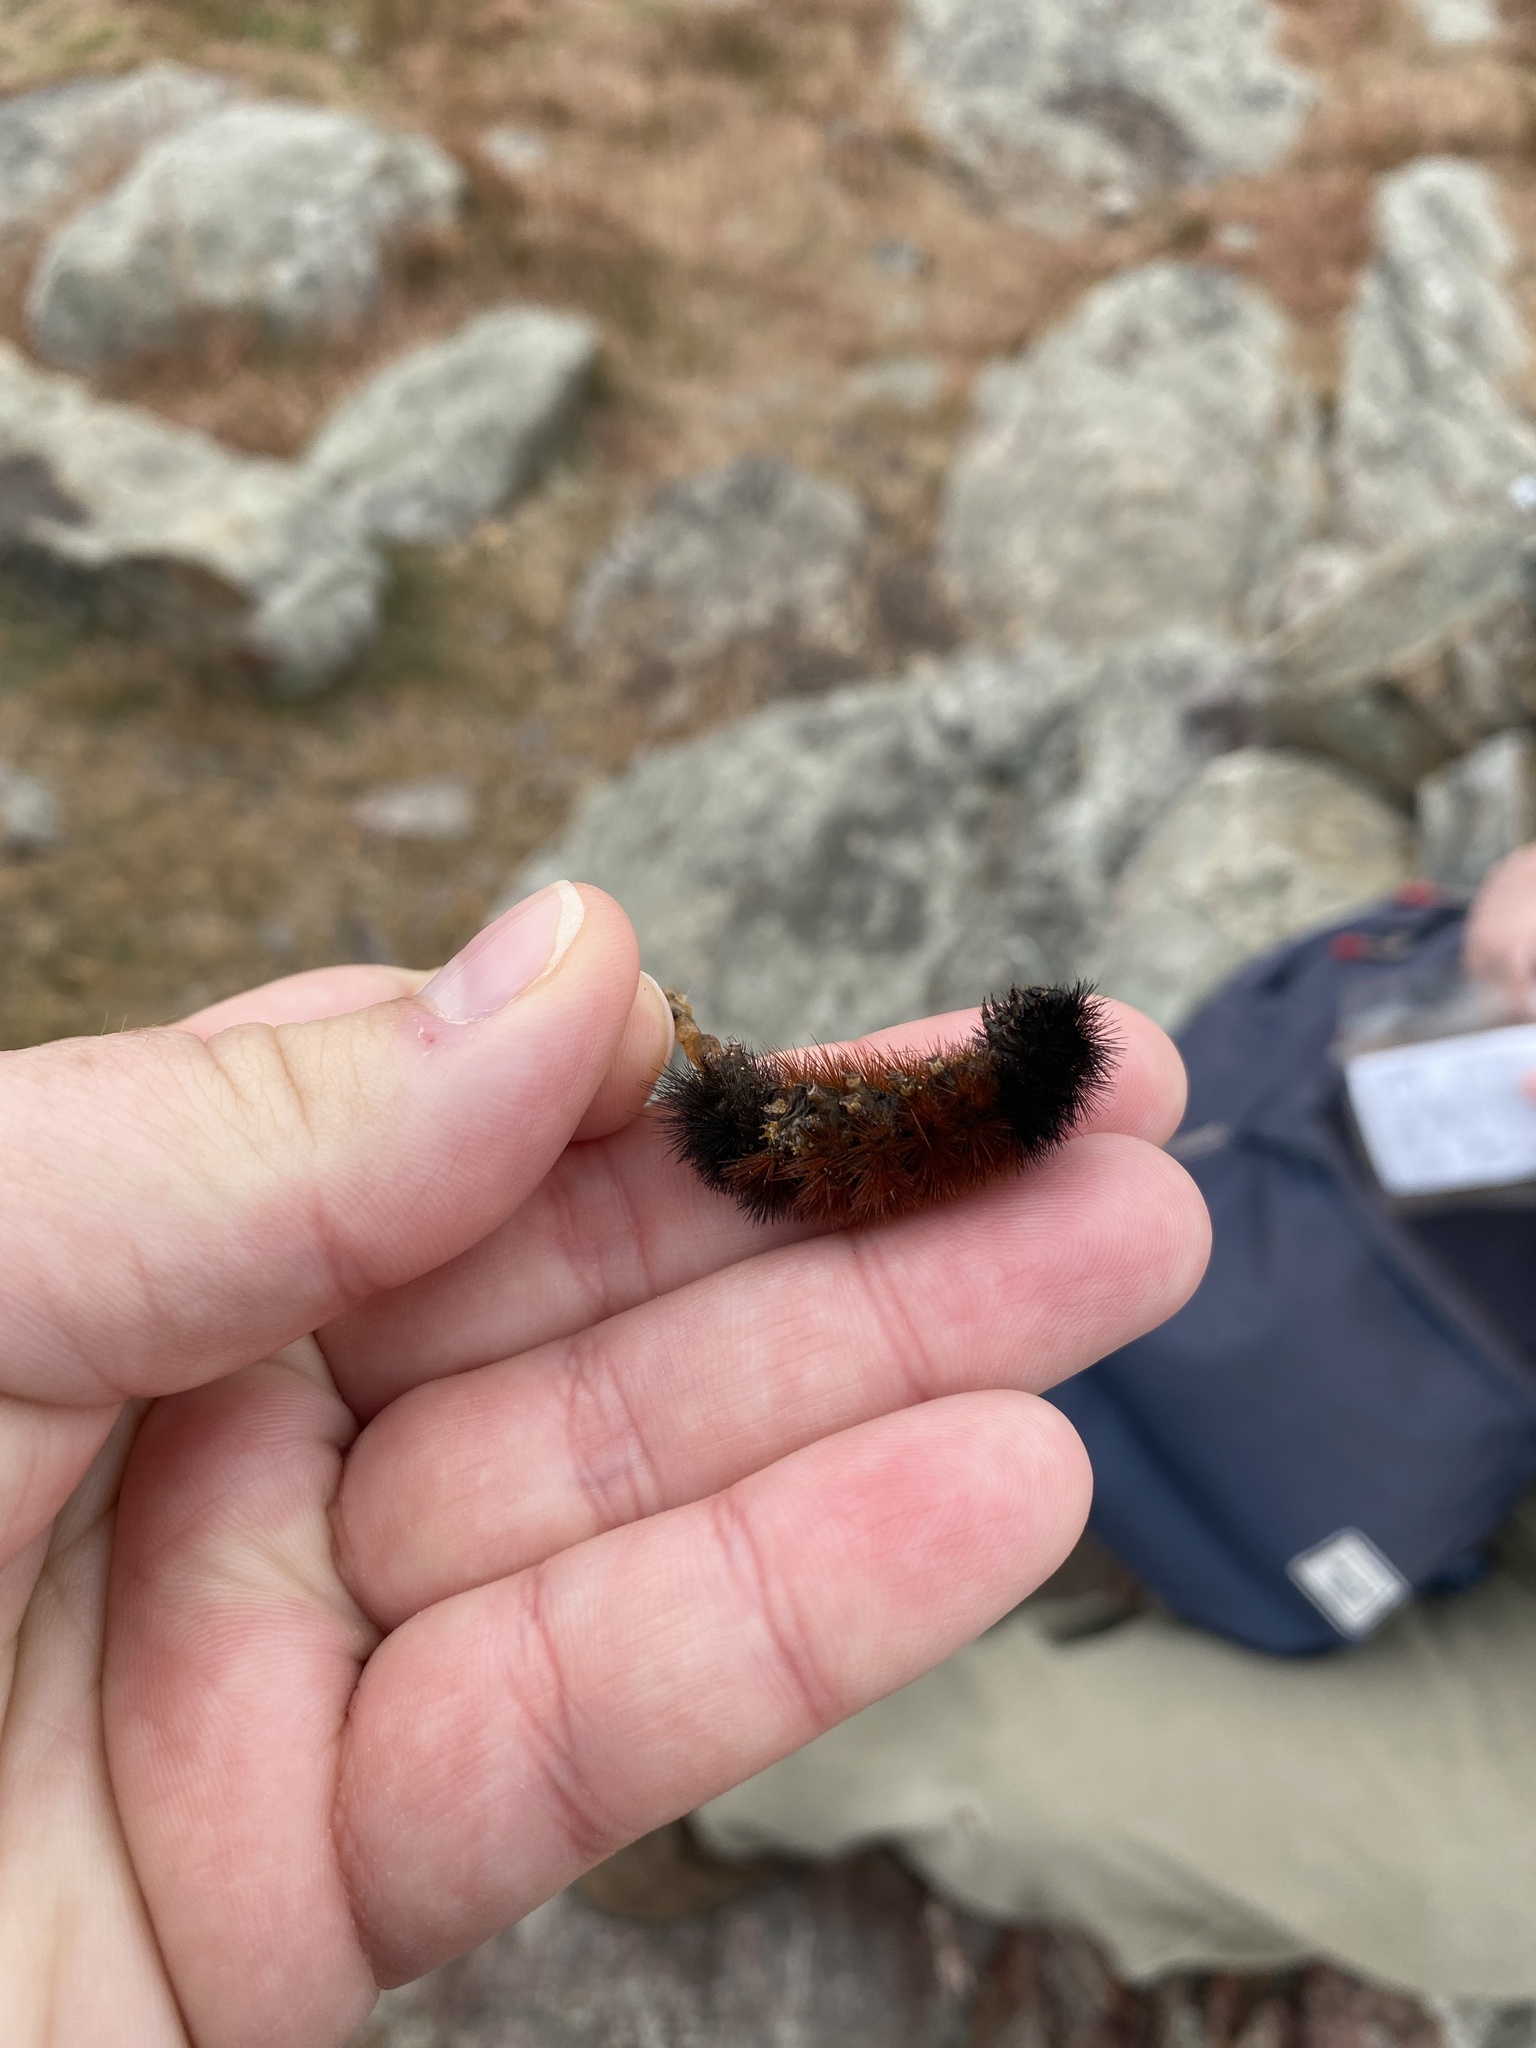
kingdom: Animalia
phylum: Arthropoda
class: Insecta
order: Lepidoptera
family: Erebidae
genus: Pyrrharctia
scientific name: Pyrrharctia isabella
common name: Isabella tiger moth
